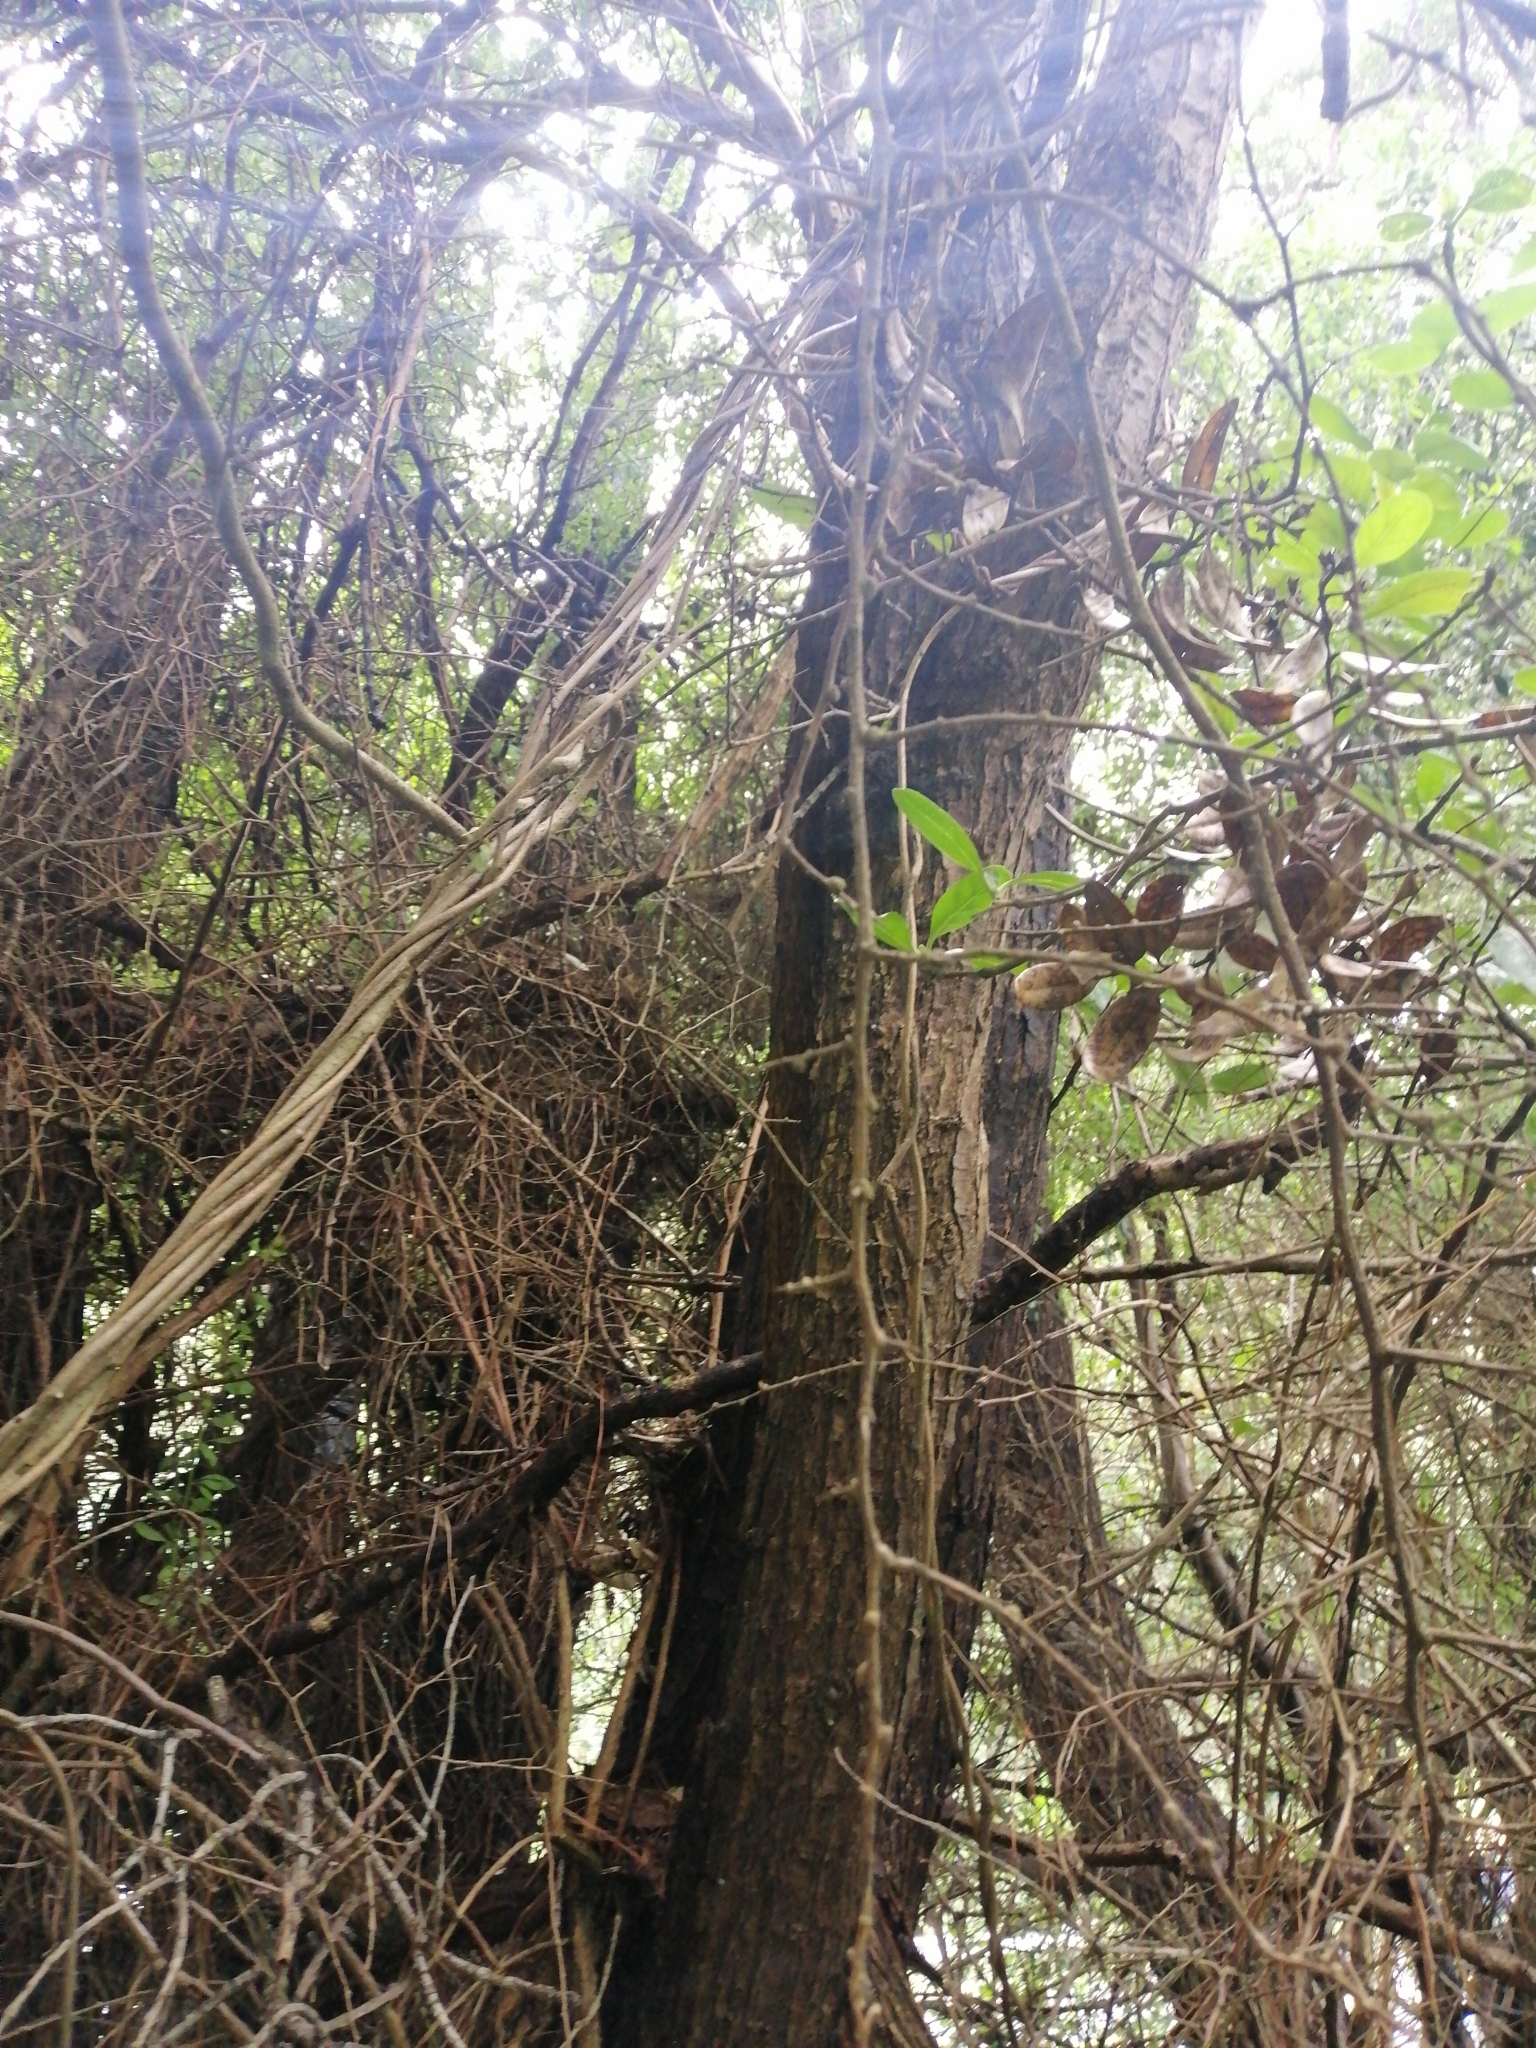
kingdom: Plantae
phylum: Tracheophyta
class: Magnoliopsida
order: Solanales
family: Solanaceae
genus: Lycium
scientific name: Lycium ferocissimum
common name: African boxthorn
